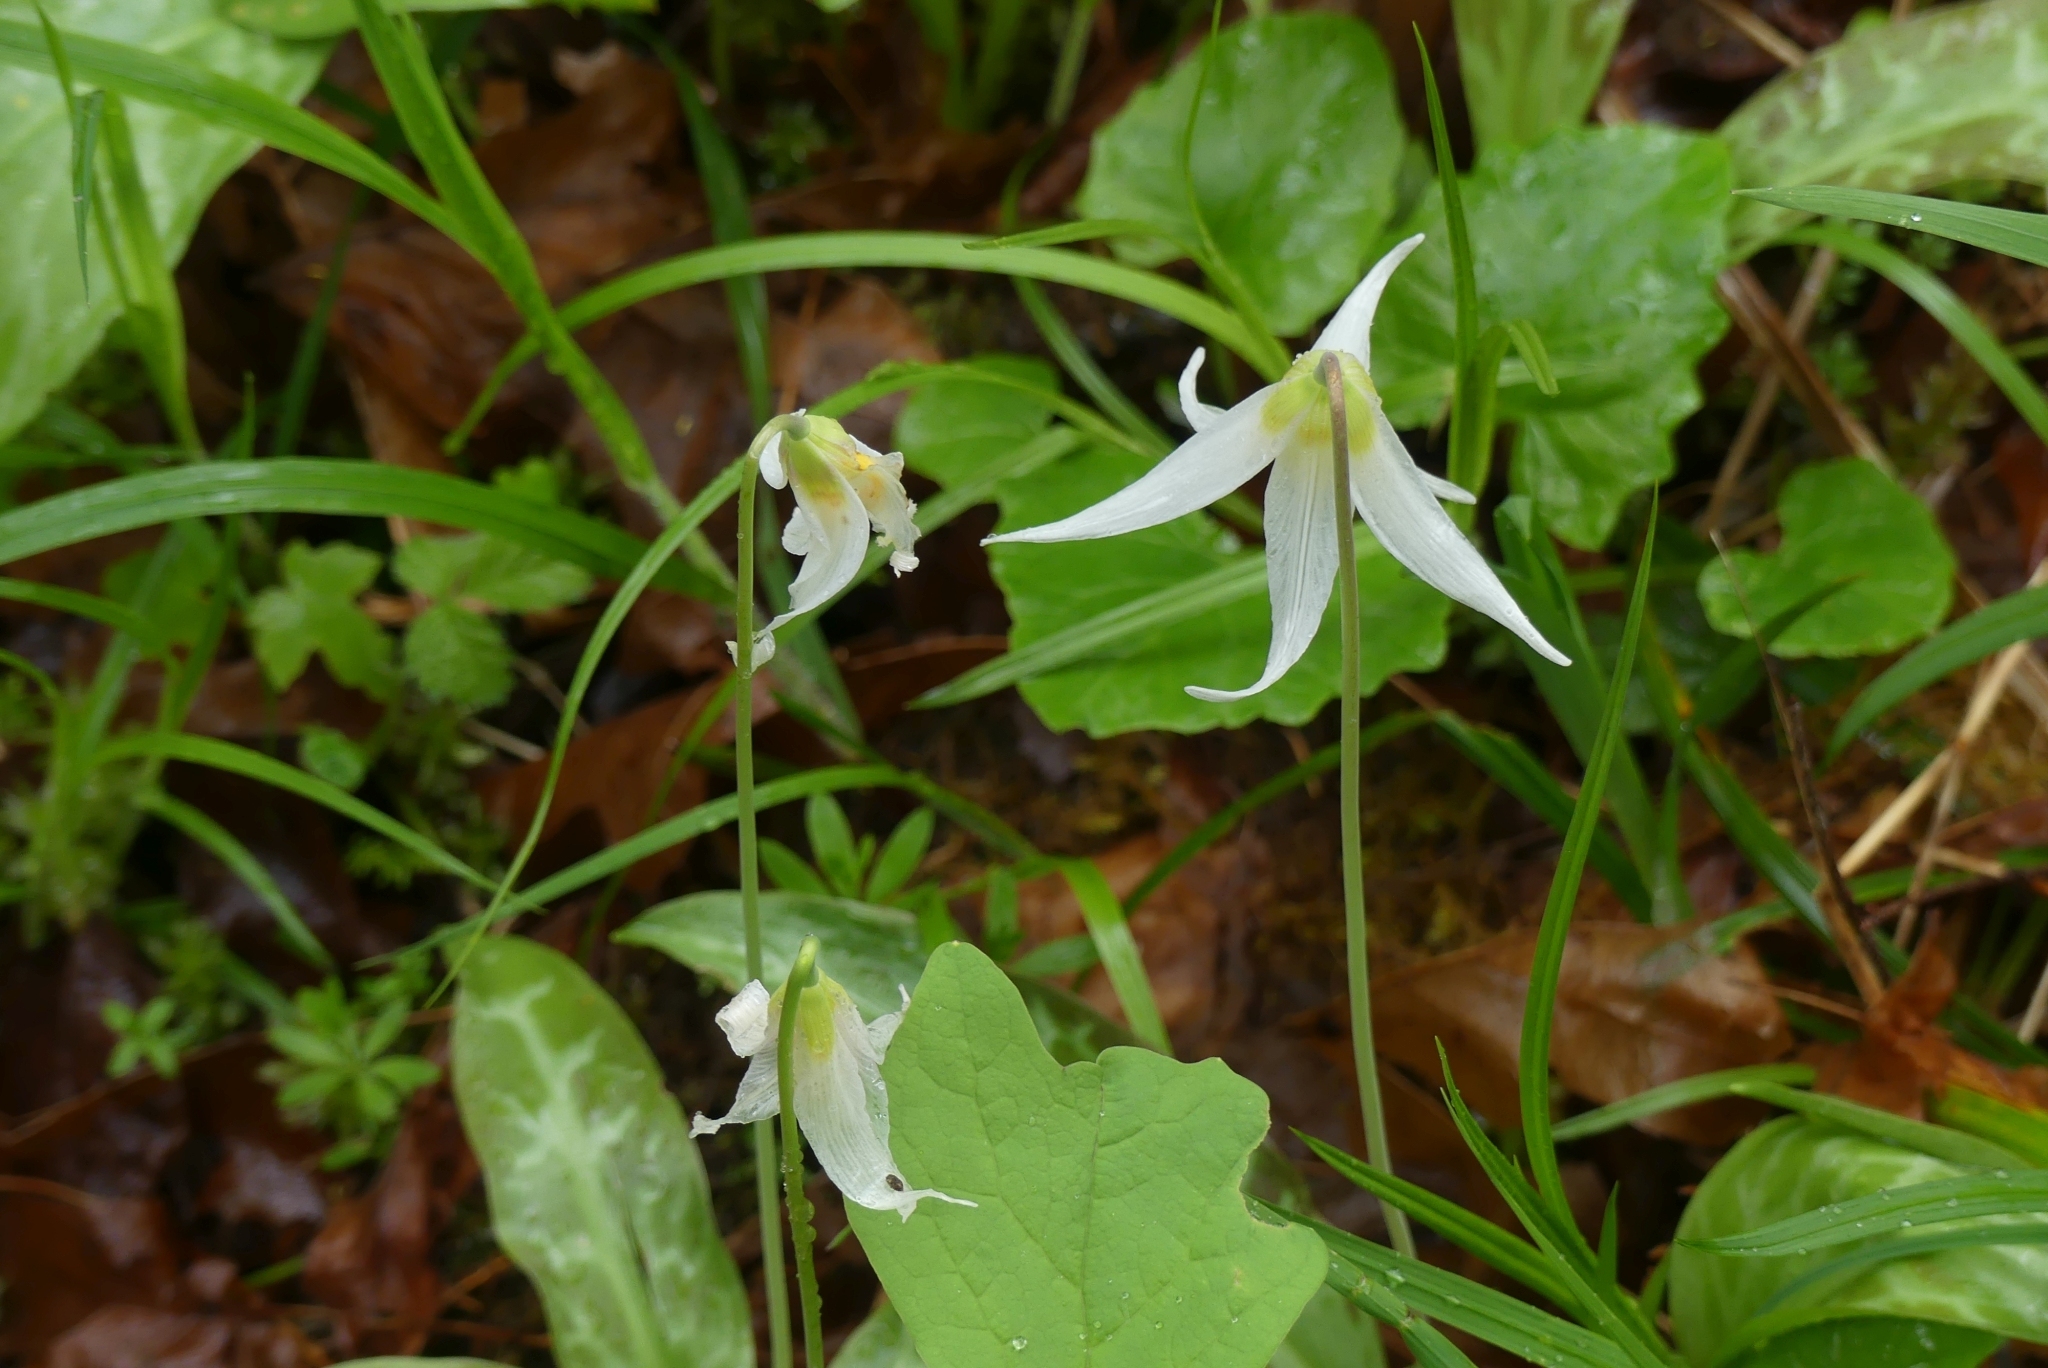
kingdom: Plantae
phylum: Tracheophyta
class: Liliopsida
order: Liliales
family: Liliaceae
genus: Erythronium
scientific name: Erythronium oregonum
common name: Giant adder's-tongue
